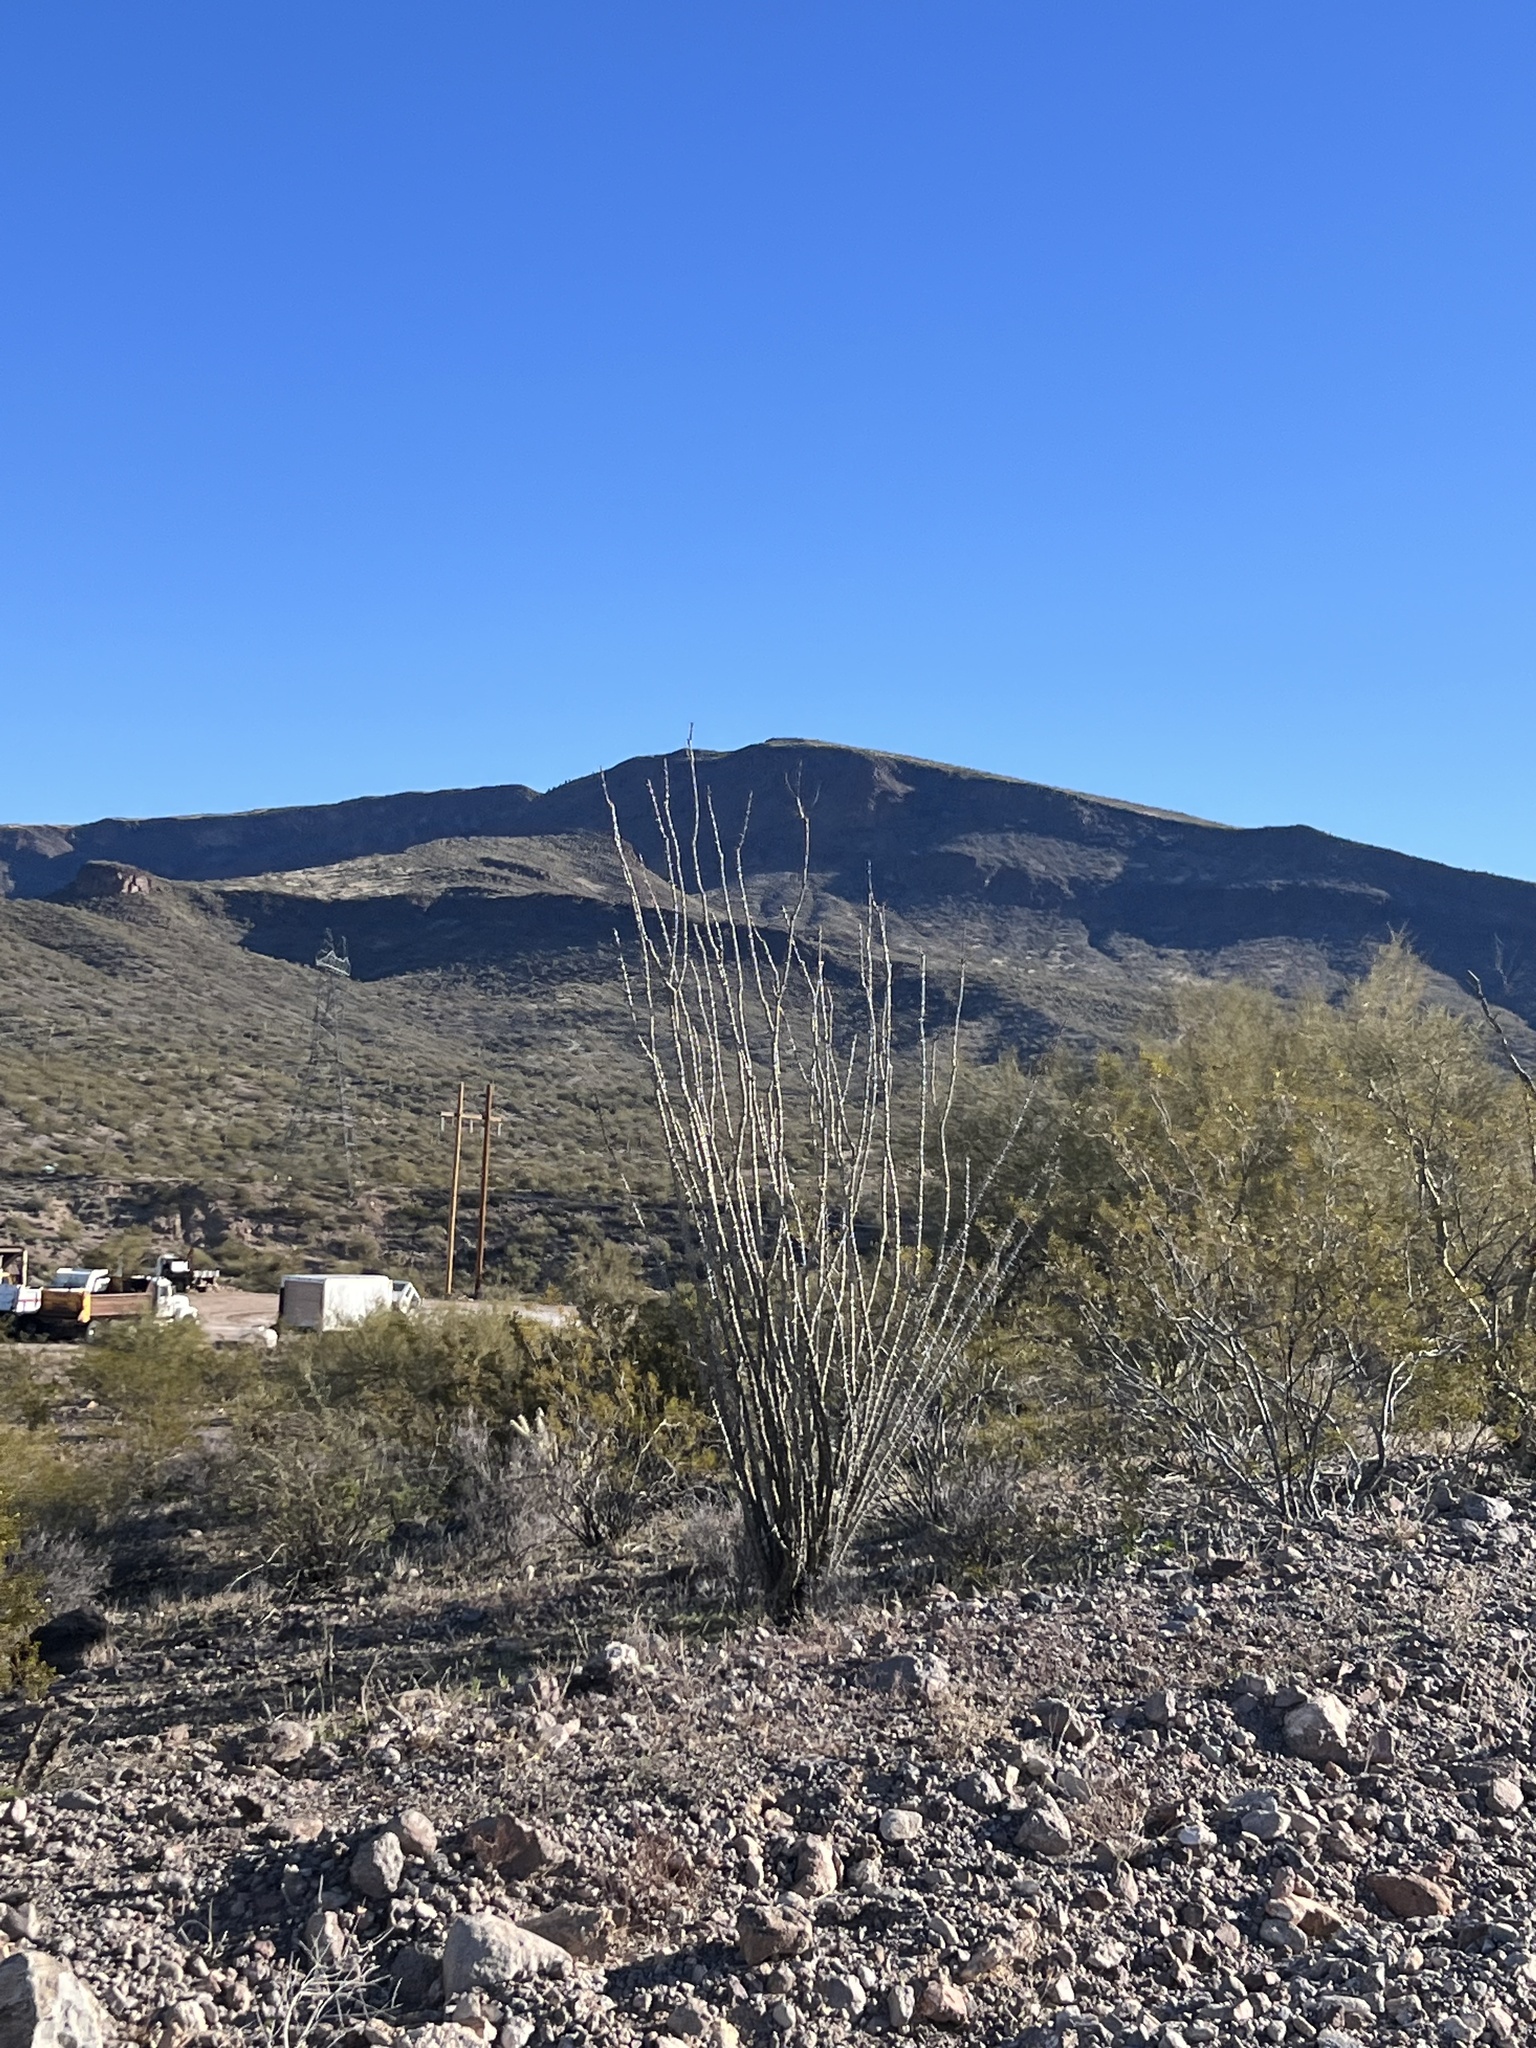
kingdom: Plantae
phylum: Tracheophyta
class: Magnoliopsida
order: Ericales
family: Fouquieriaceae
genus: Fouquieria
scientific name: Fouquieria splendens
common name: Vine-cactus
